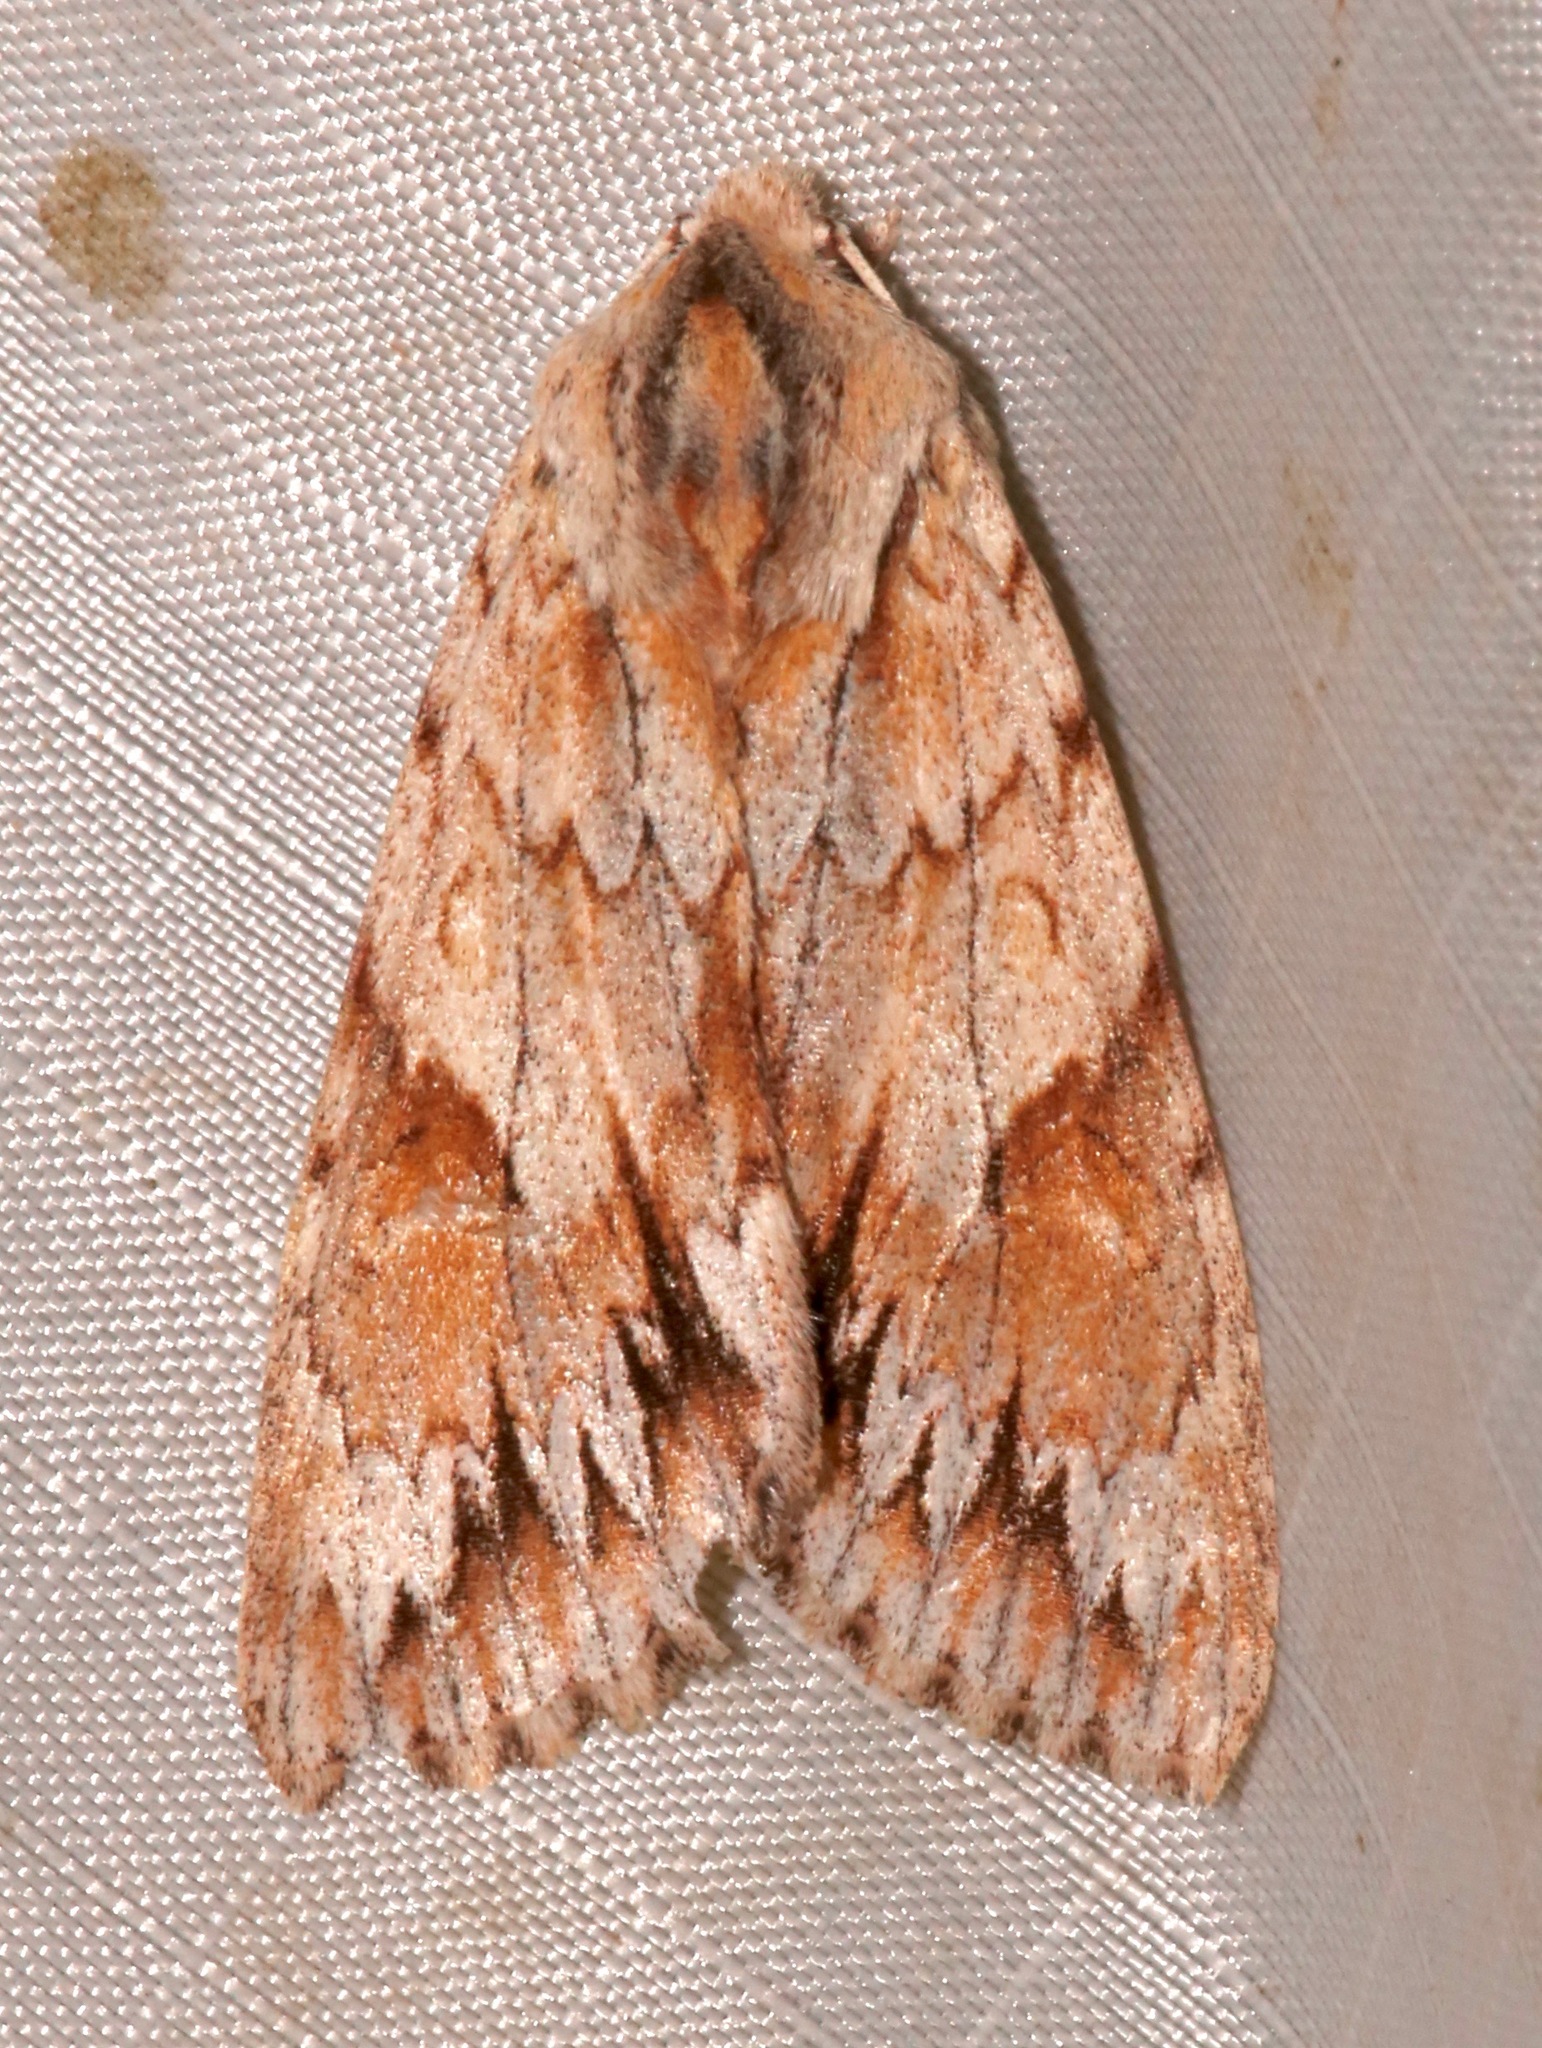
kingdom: Animalia
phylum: Arthropoda
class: Insecta
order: Lepidoptera
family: Noctuidae
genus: Andropolia
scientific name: Andropolia theodori
